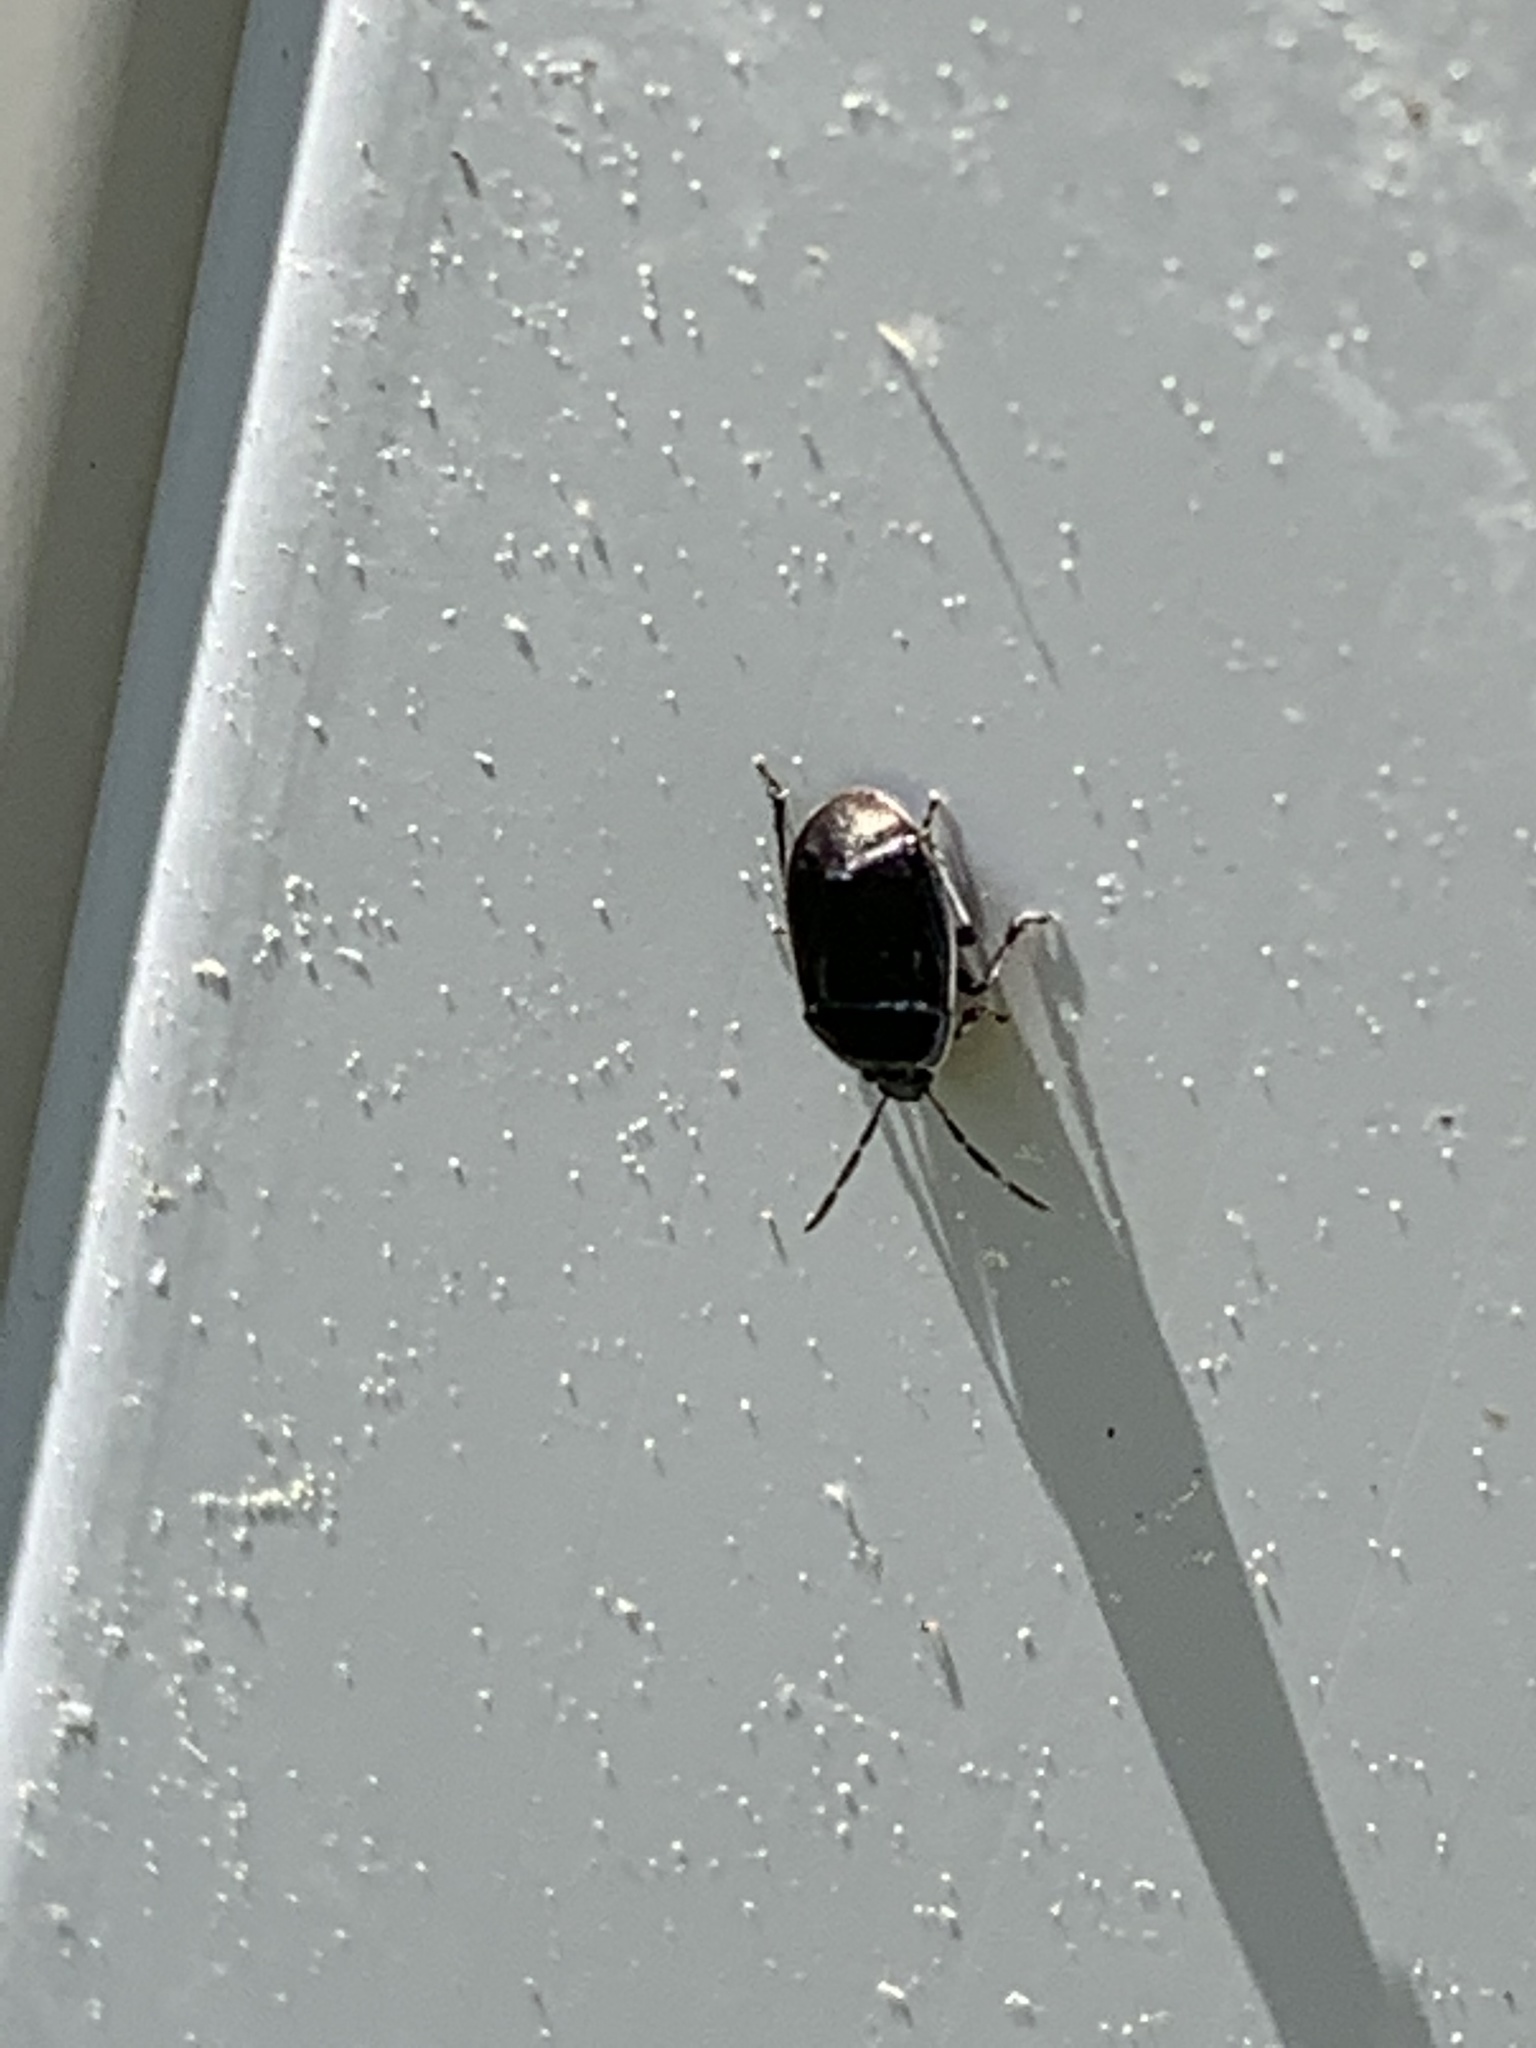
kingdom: Animalia
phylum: Arthropoda
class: Insecta
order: Hemiptera
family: Cydnidae
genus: Sehirus
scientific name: Sehirus cinctus
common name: White-margined burrower bug
